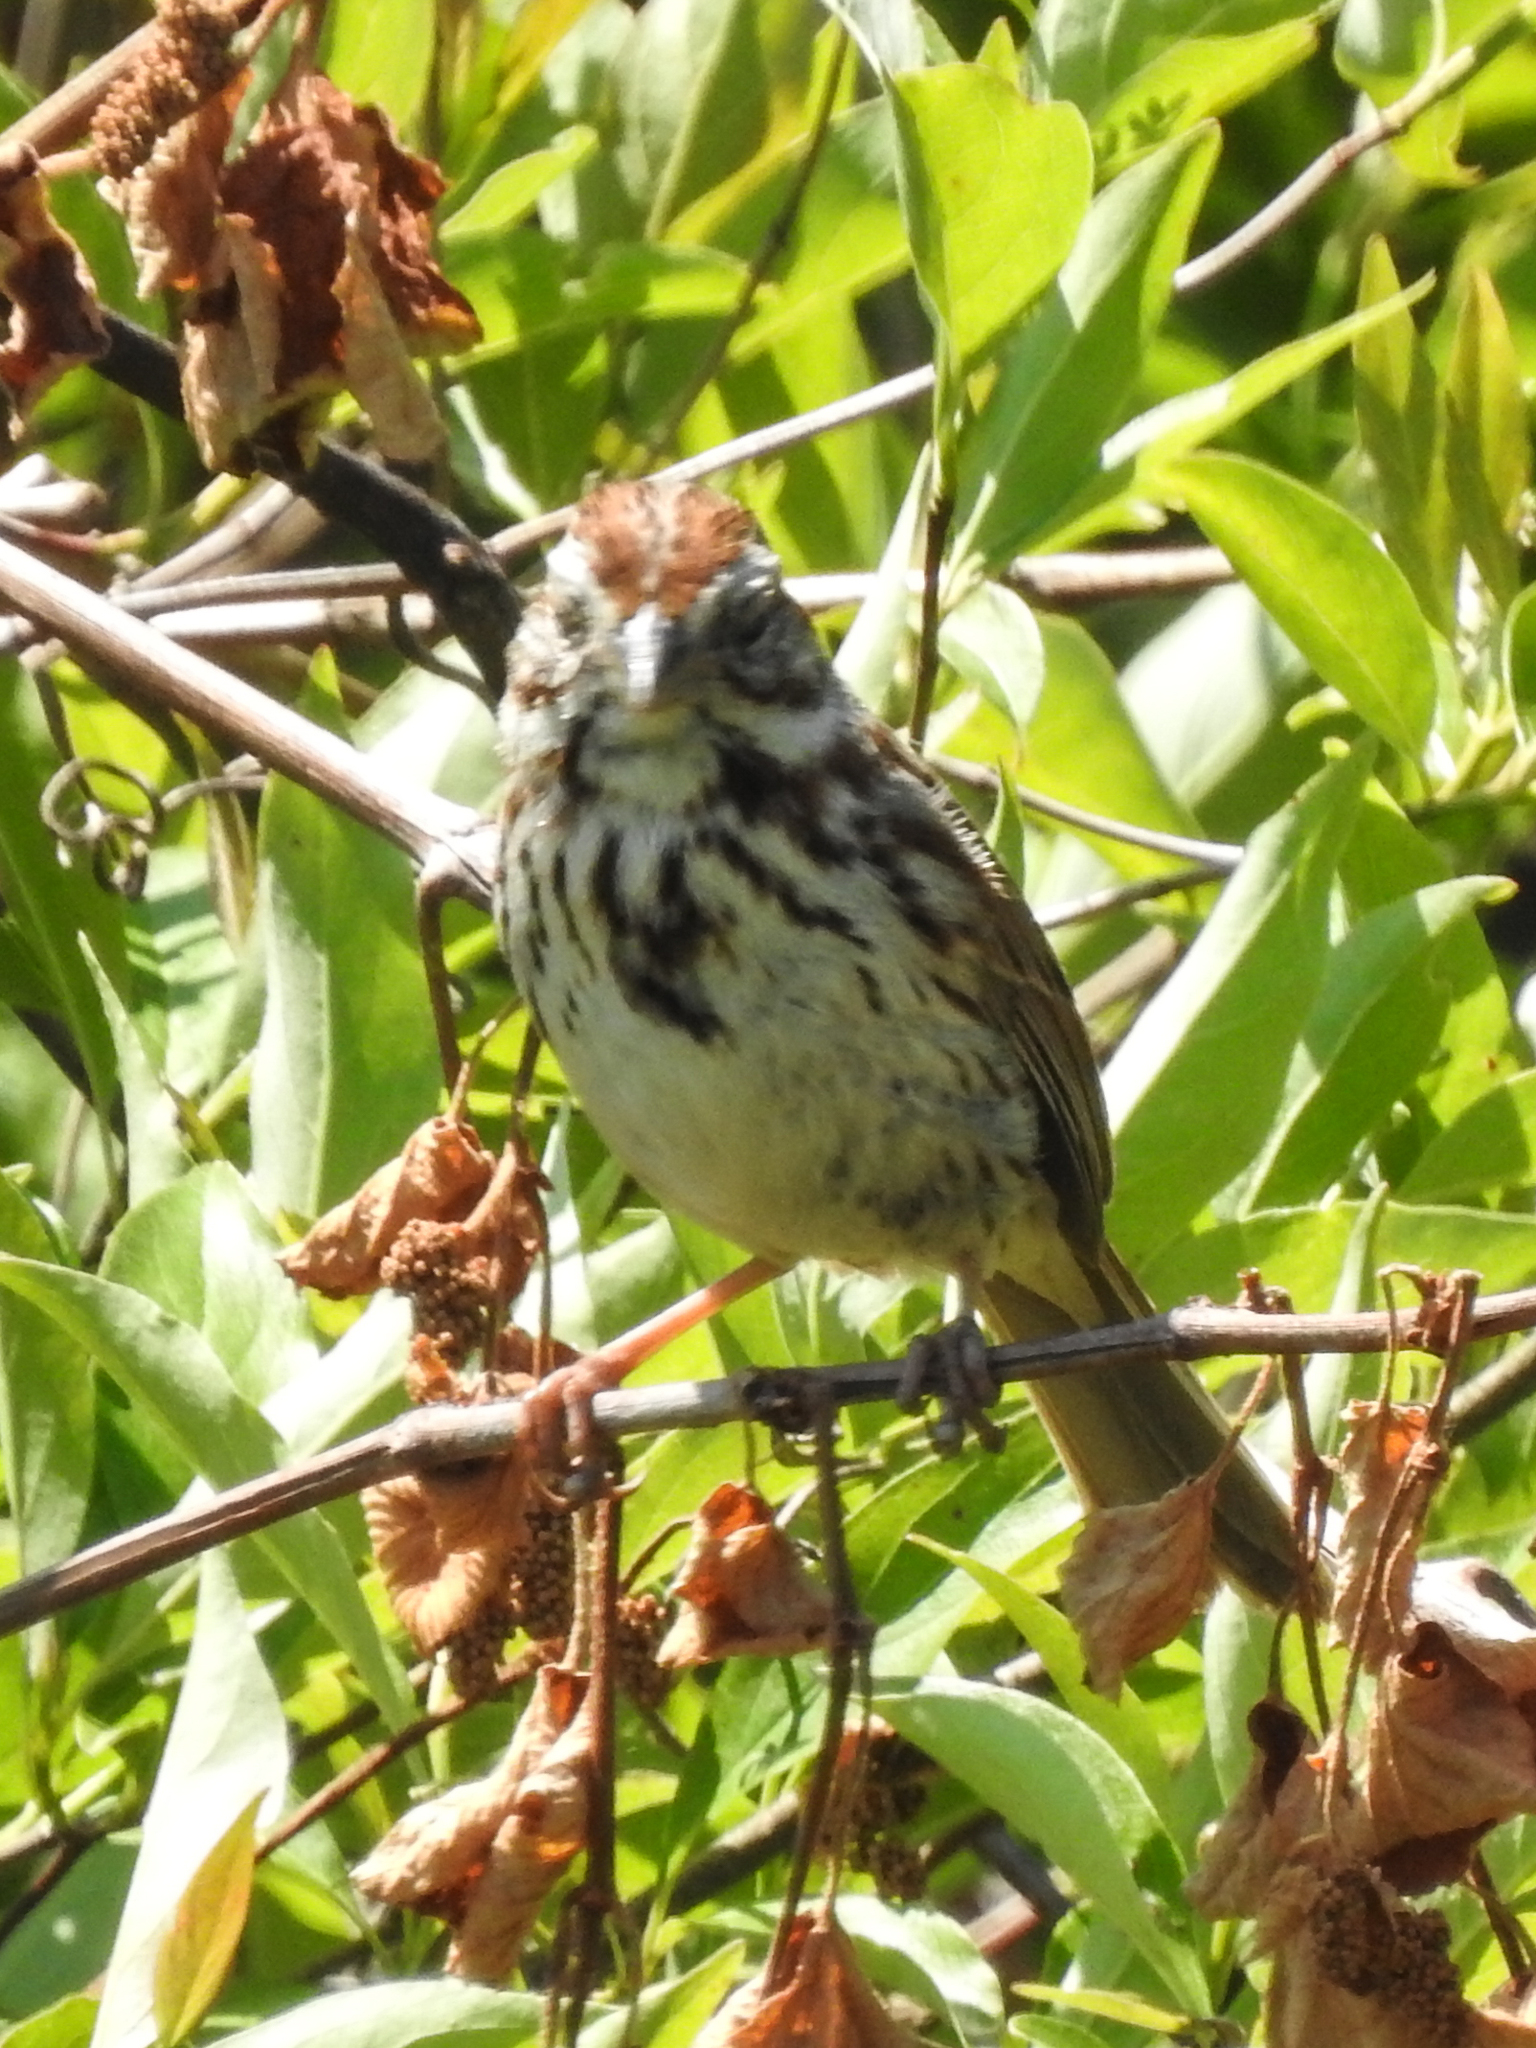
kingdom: Animalia
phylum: Chordata
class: Aves
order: Passeriformes
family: Passerellidae
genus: Melospiza
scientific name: Melospiza melodia
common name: Song sparrow
